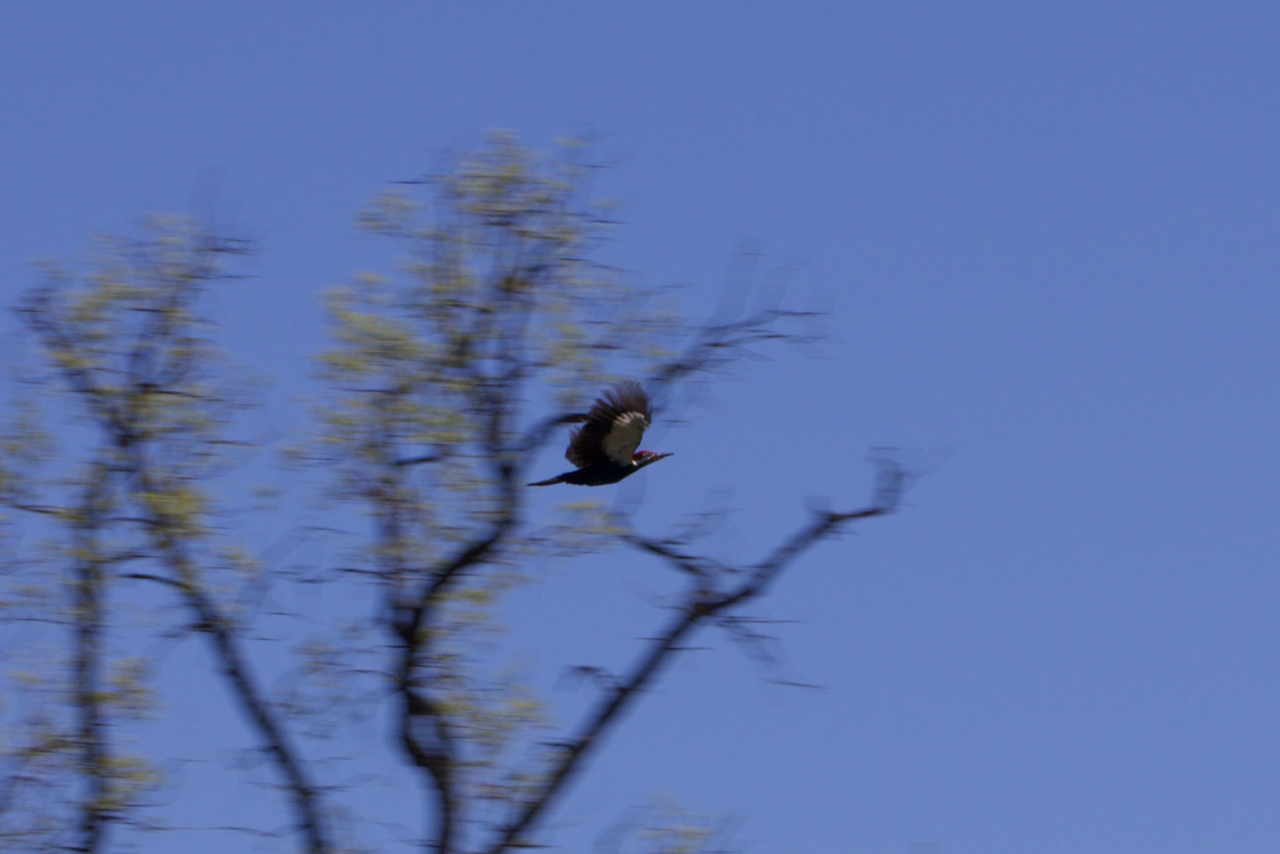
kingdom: Animalia
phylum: Chordata
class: Aves
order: Piciformes
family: Picidae
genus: Dryocopus
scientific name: Dryocopus pileatus
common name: Pileated woodpecker
